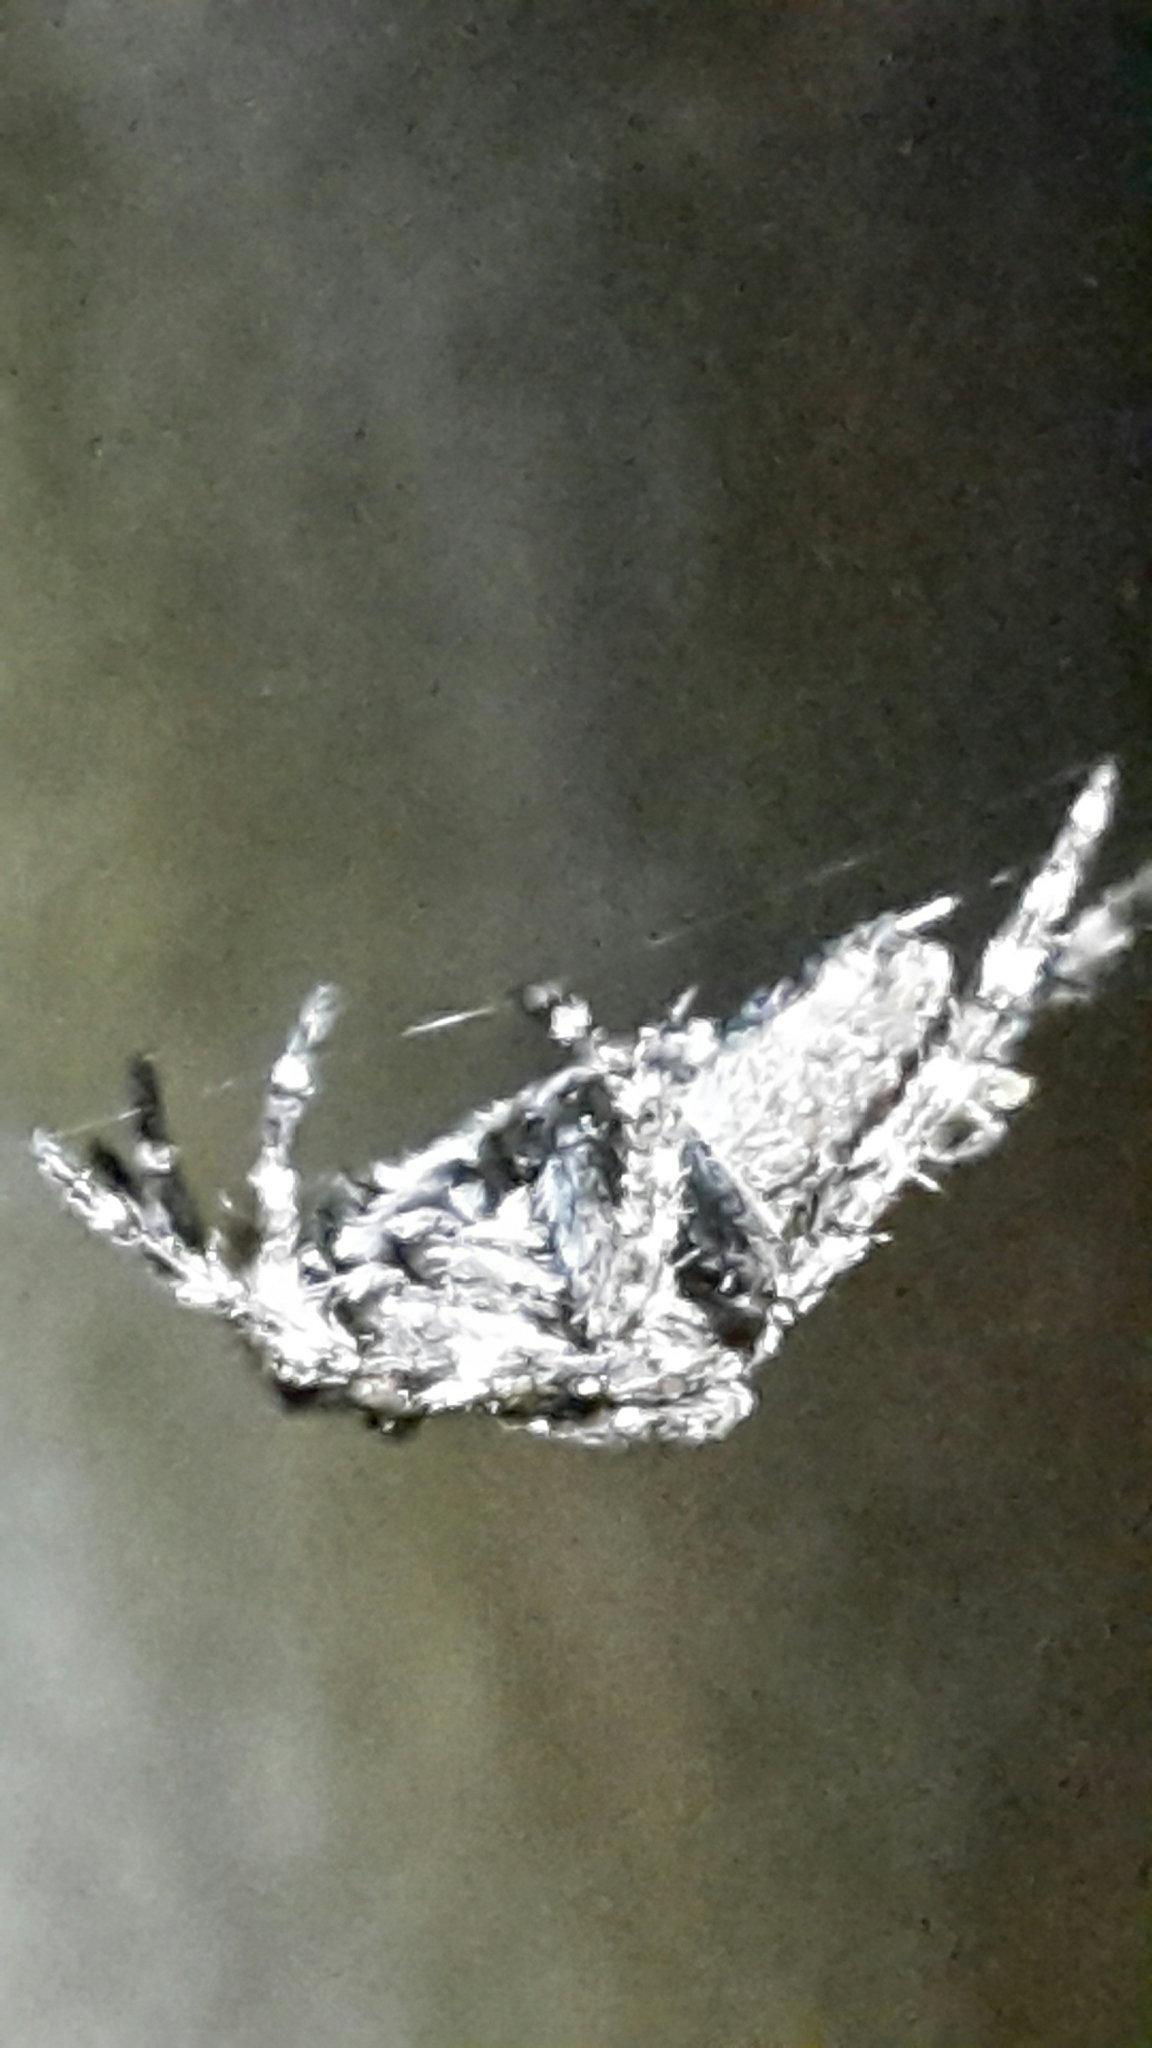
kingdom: Animalia
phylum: Arthropoda
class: Arachnida
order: Araneae
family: Araneidae
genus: Eriophora
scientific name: Eriophora pustulosa
